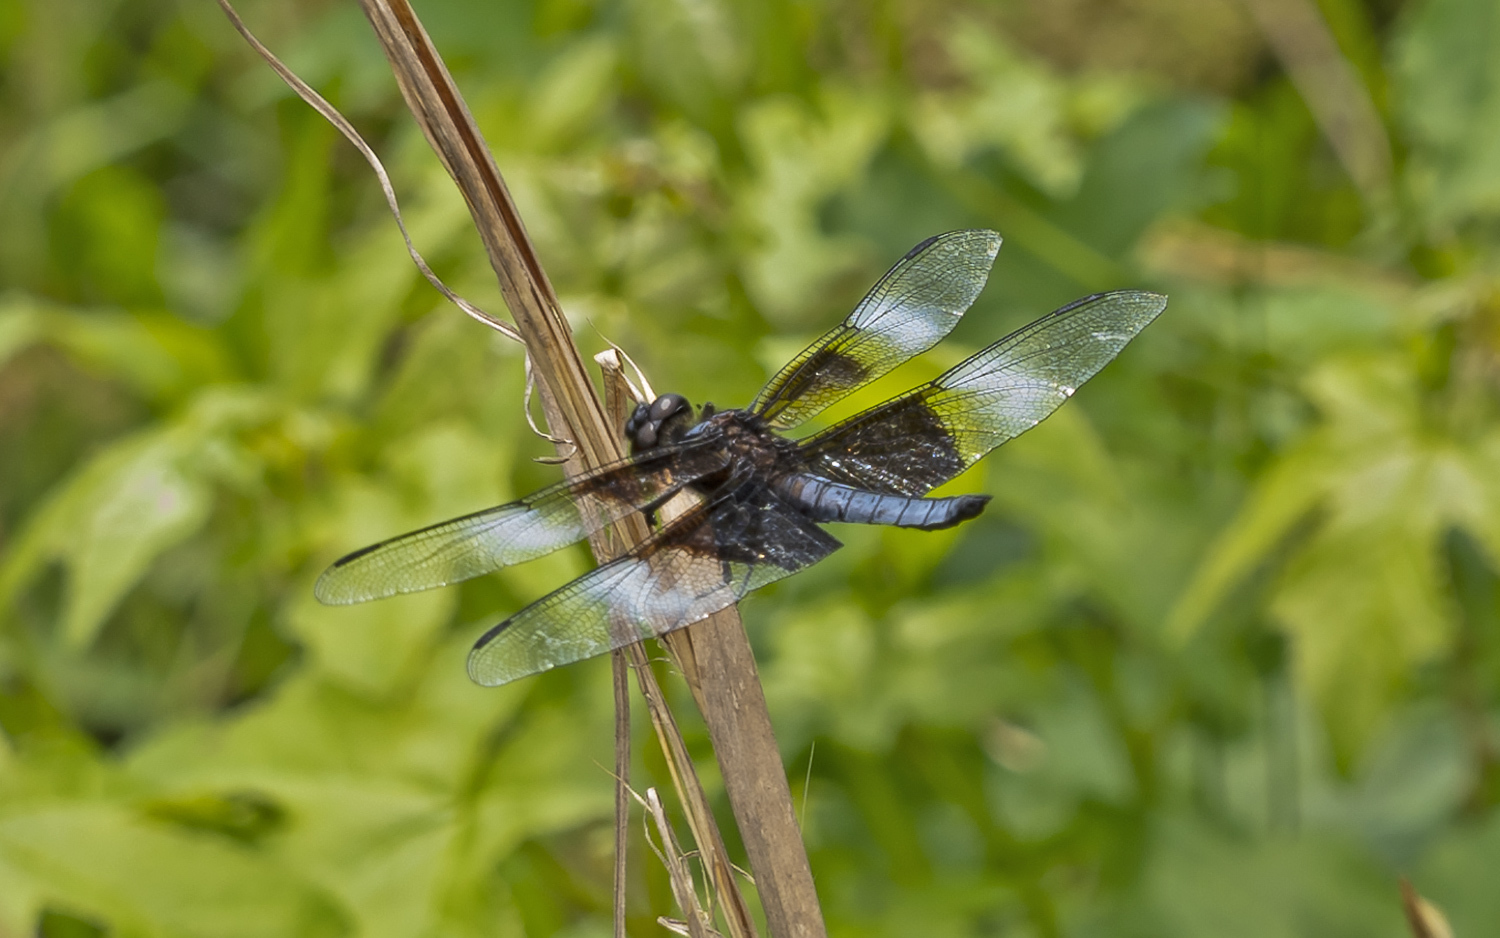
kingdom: Animalia
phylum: Arthropoda
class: Insecta
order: Odonata
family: Libellulidae
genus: Libellula
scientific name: Libellula luctuosa
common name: Widow skimmer
